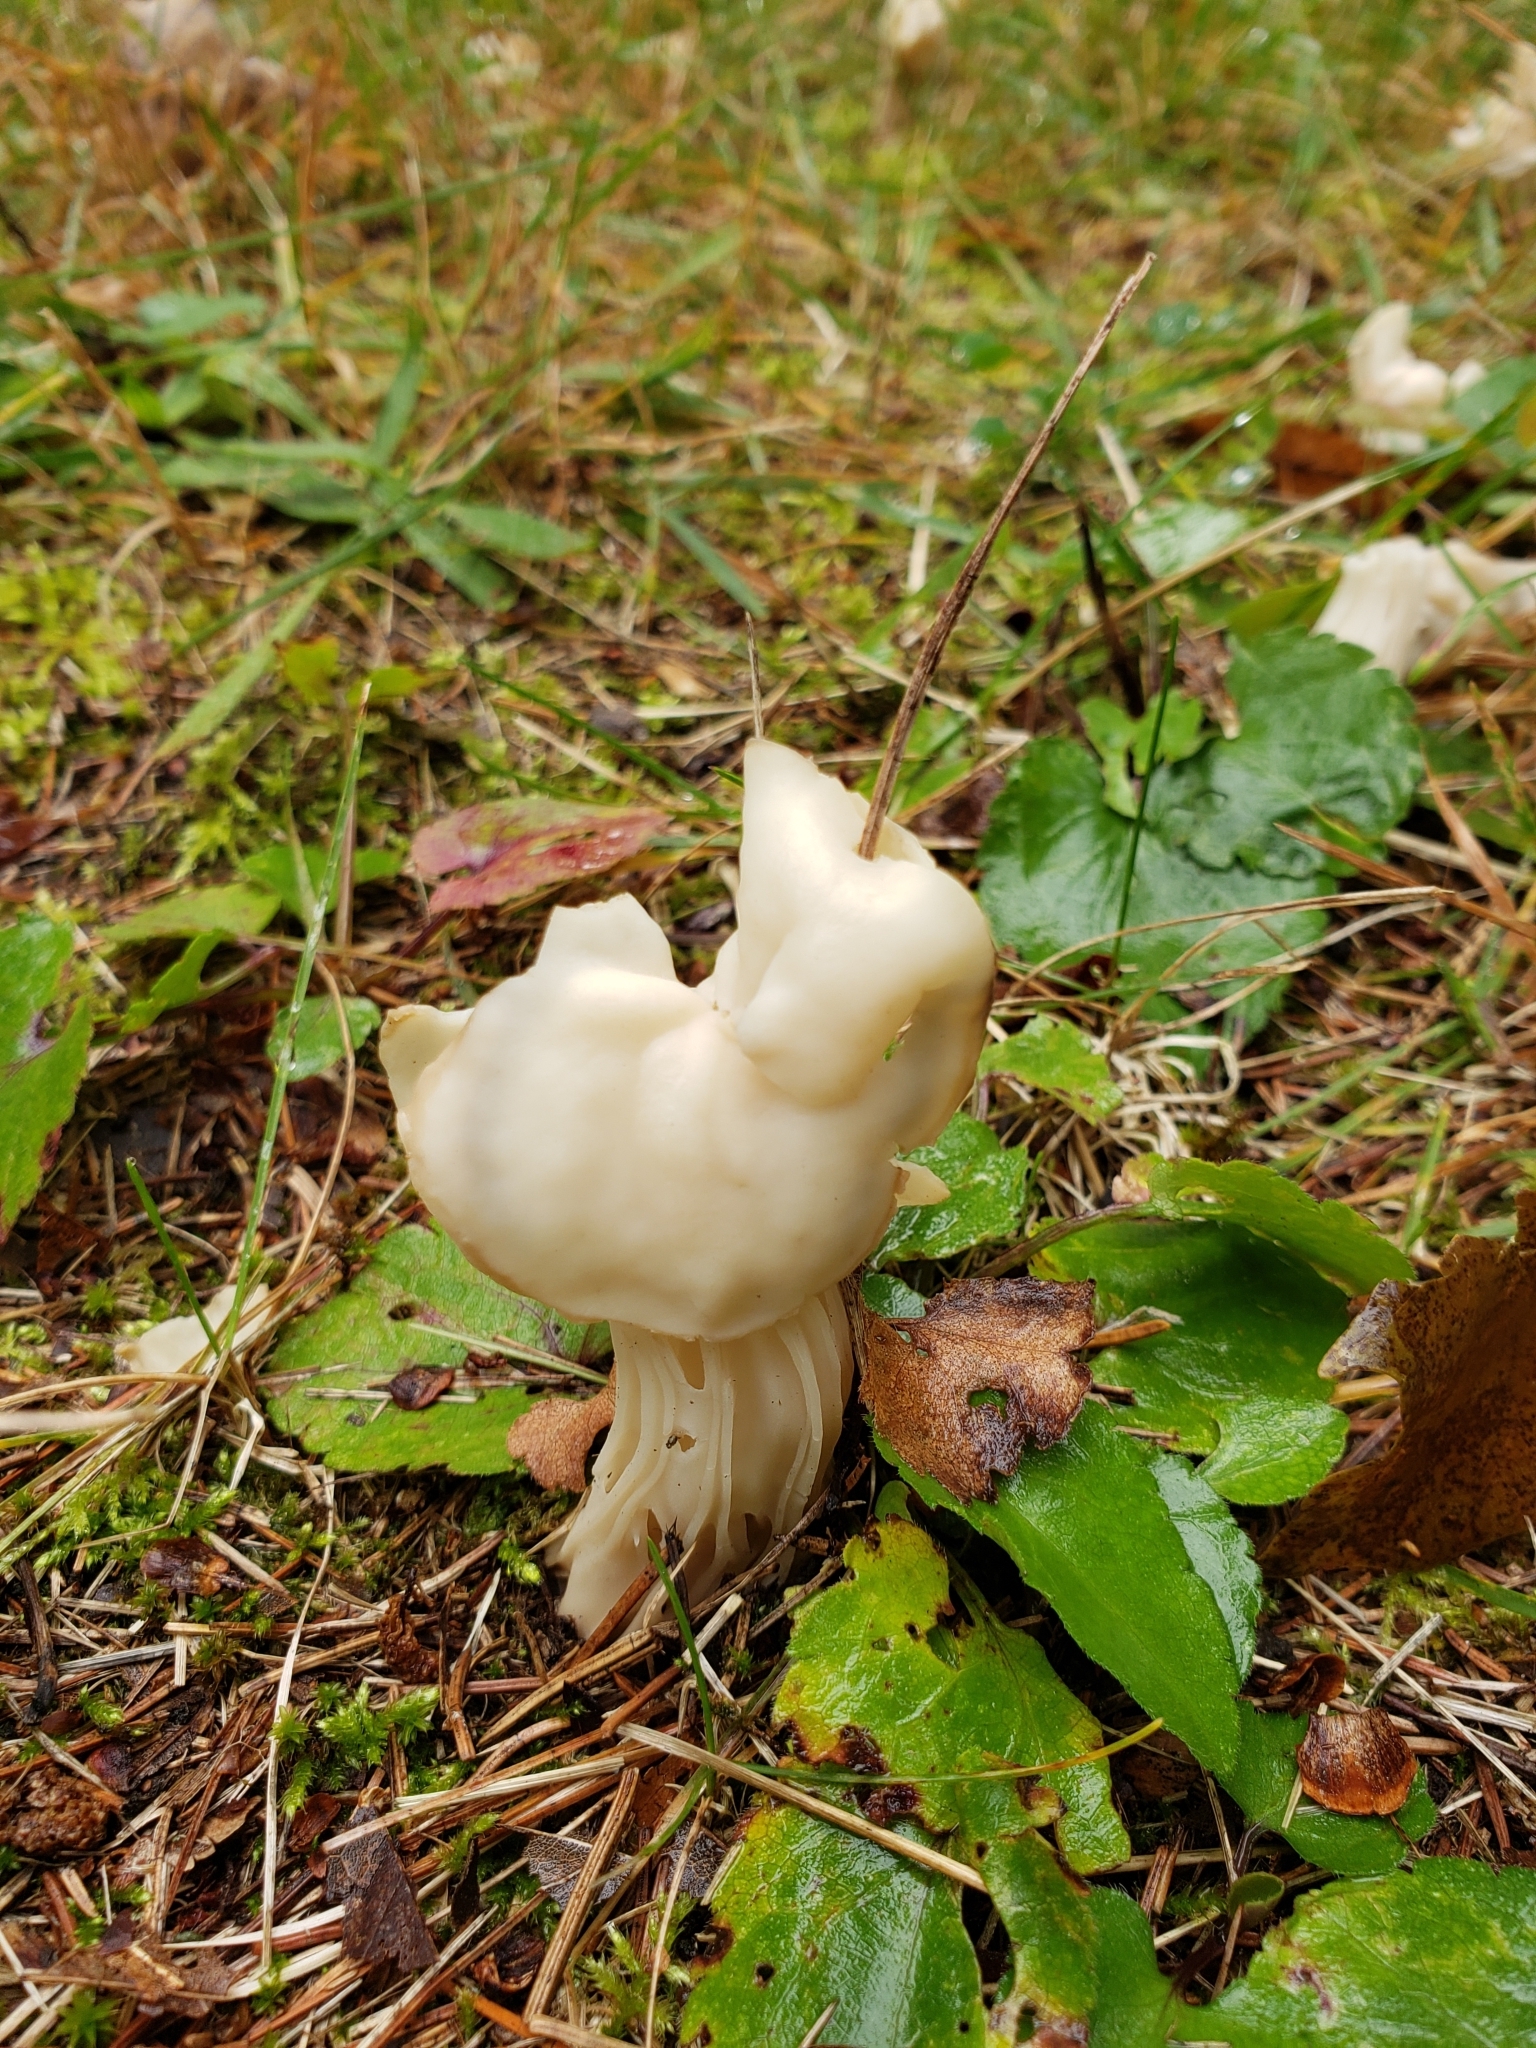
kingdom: Fungi
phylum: Ascomycota
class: Pezizomycetes
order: Pezizales
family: Helvellaceae
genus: Helvella
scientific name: Helvella crispa
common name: White saddle
